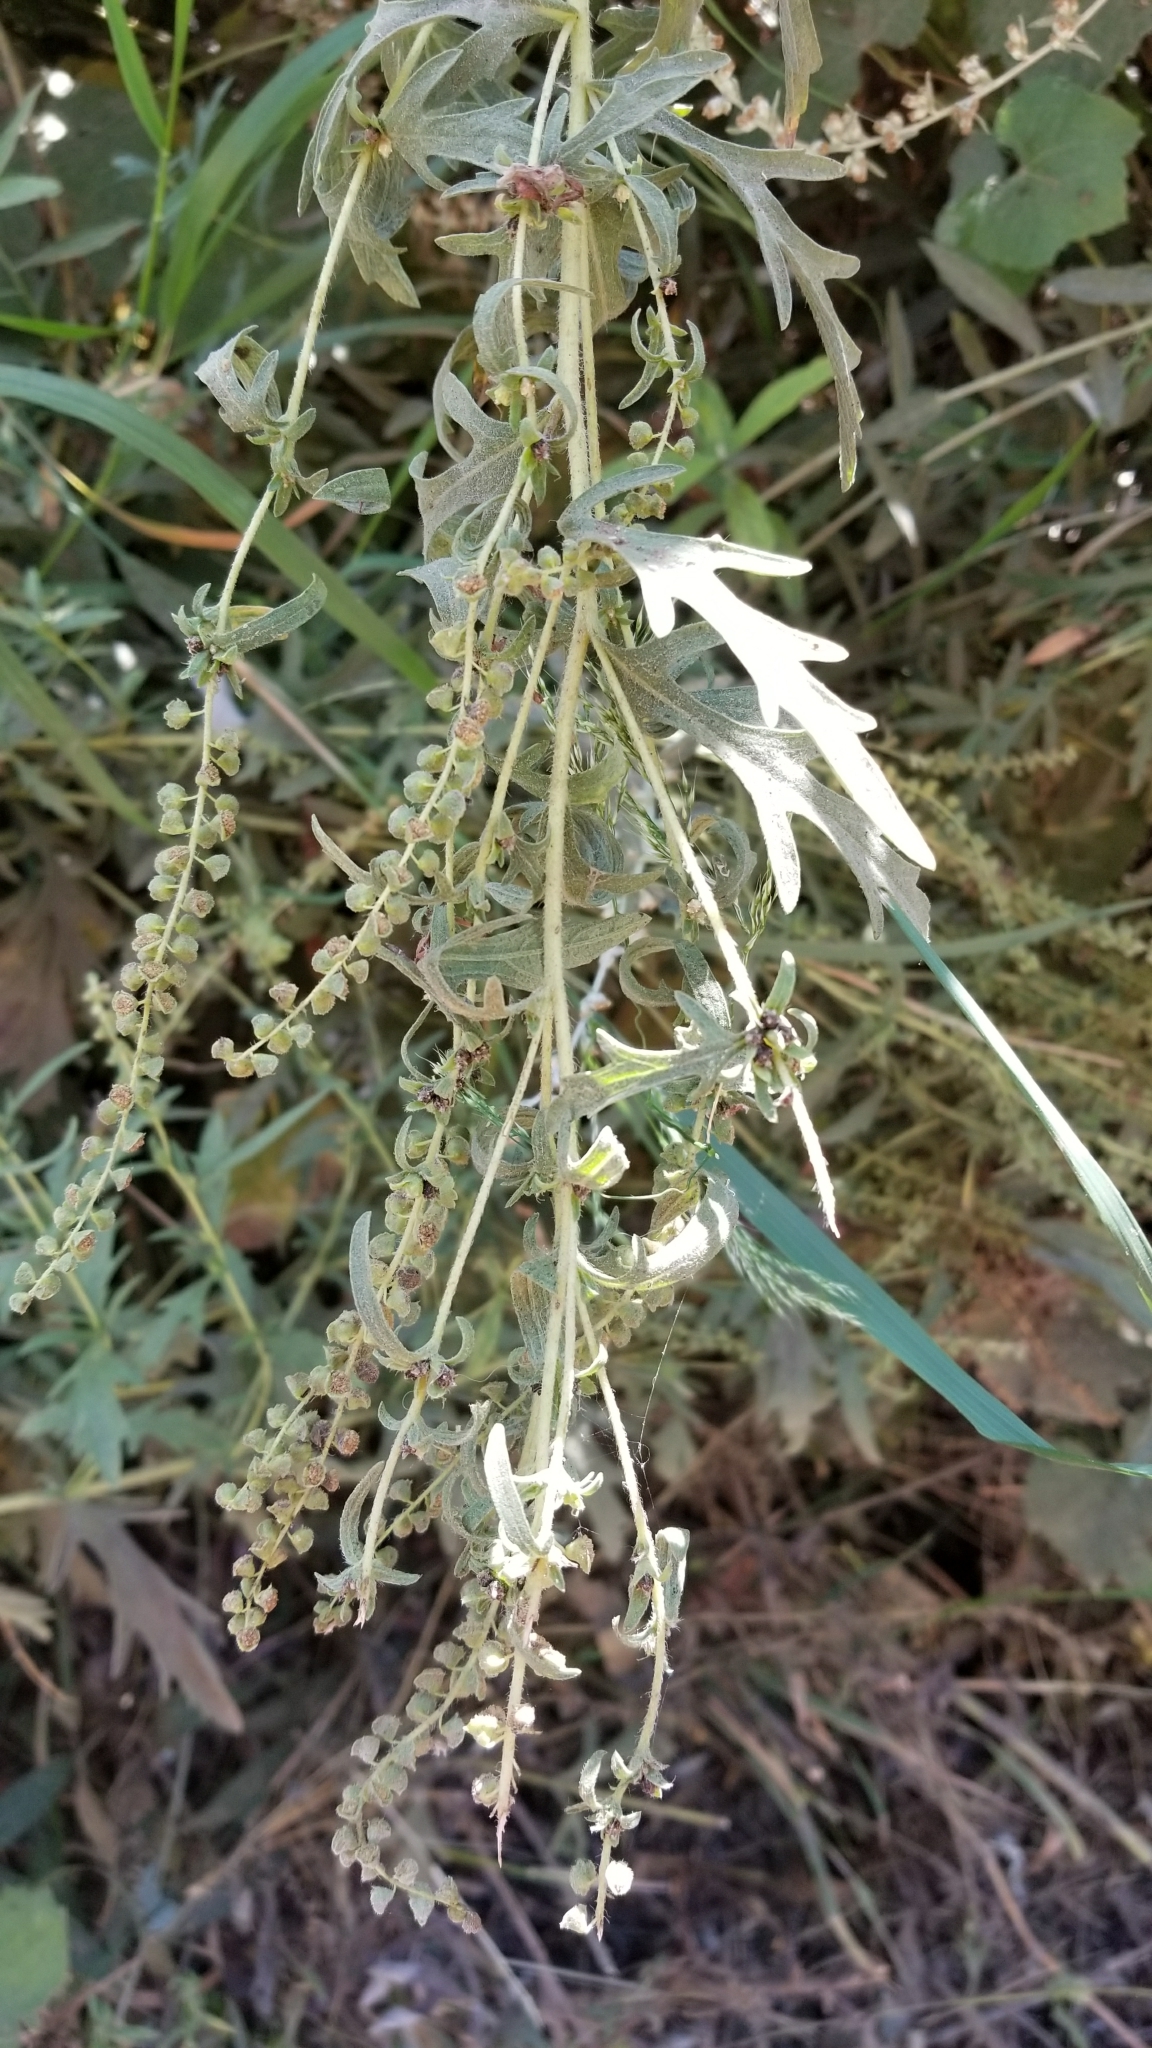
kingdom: Plantae
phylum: Tracheophyta
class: Magnoliopsida
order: Asterales
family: Asteraceae
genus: Ambrosia
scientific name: Ambrosia psilostachya
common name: Perennial ragweed
